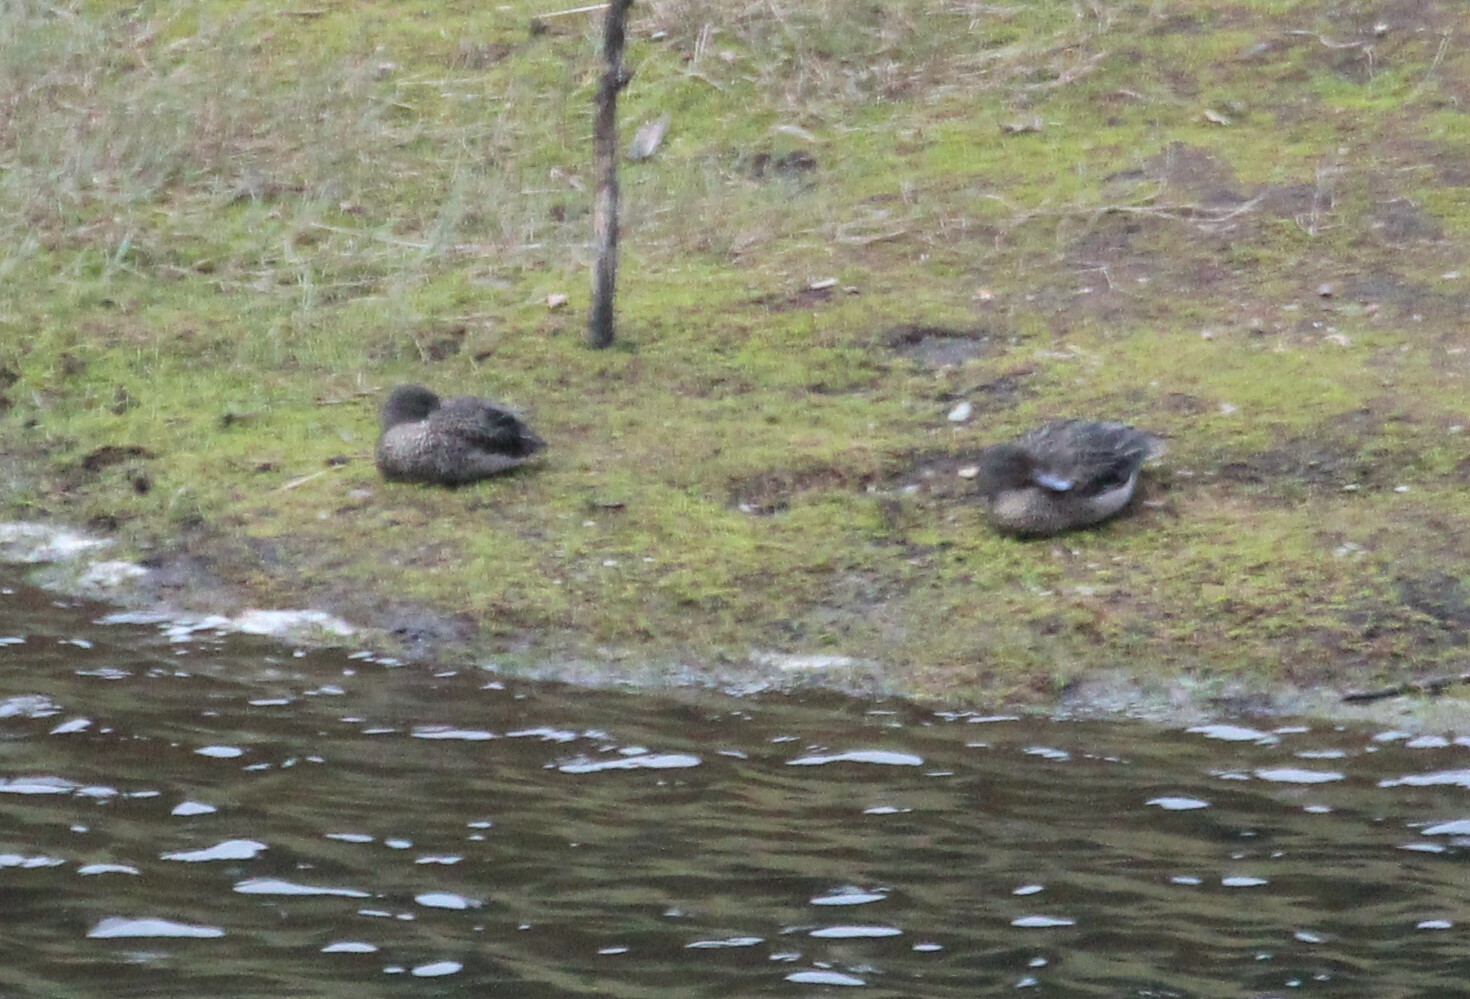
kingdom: Animalia
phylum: Chordata
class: Aves
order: Anseriformes
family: Anatidae
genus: Anas
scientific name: Anas andium
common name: Andean teal
